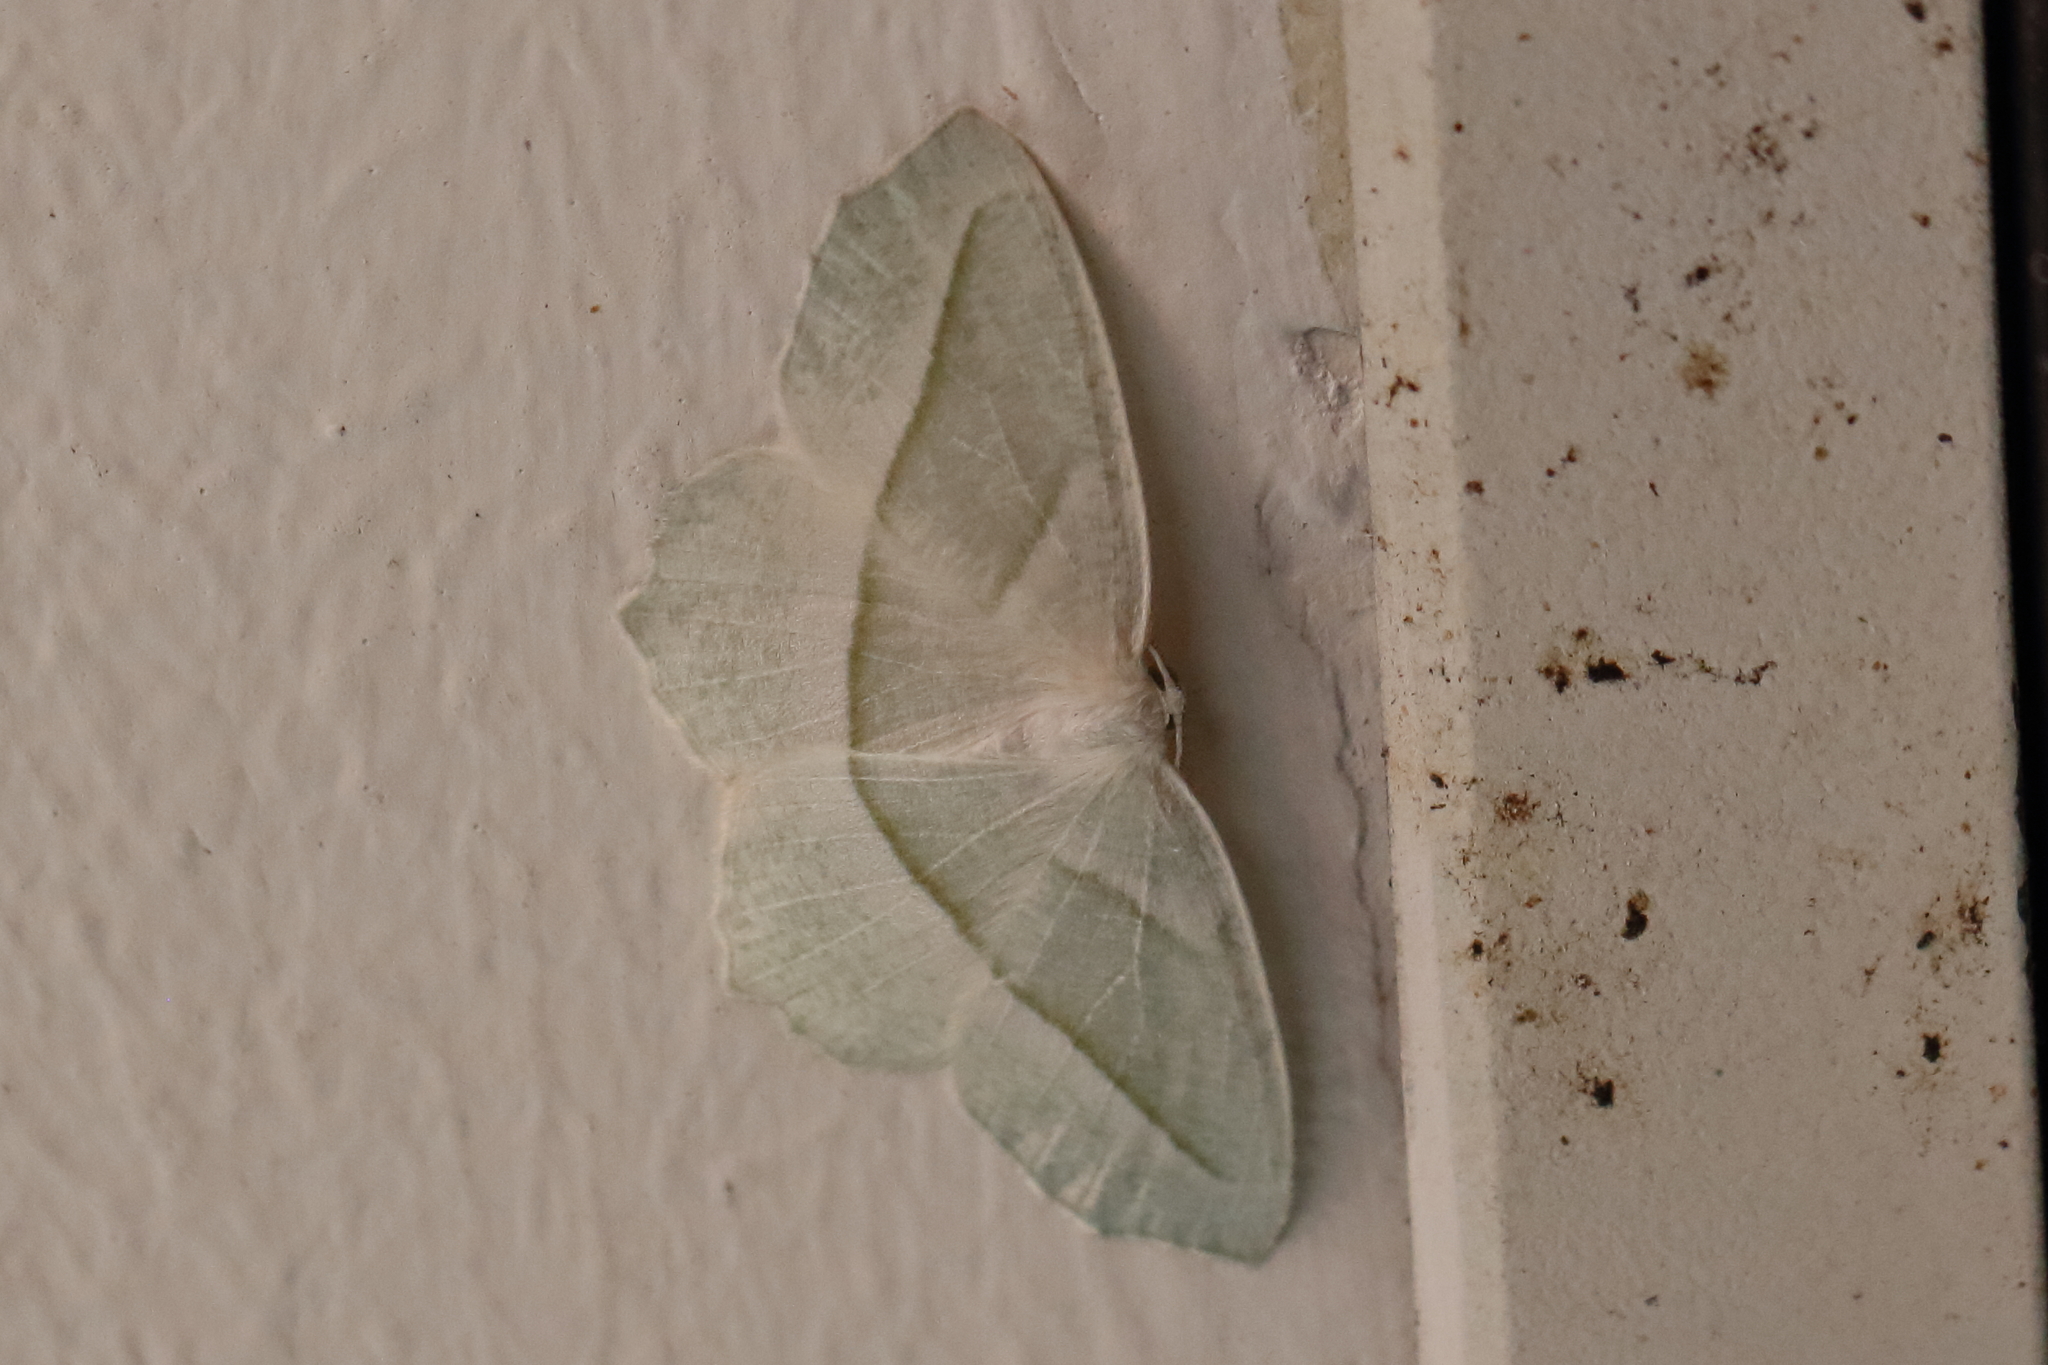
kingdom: Animalia
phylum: Arthropoda
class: Insecta
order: Lepidoptera
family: Geometridae
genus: Campaea
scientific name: Campaea perlata
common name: Fringed looper
